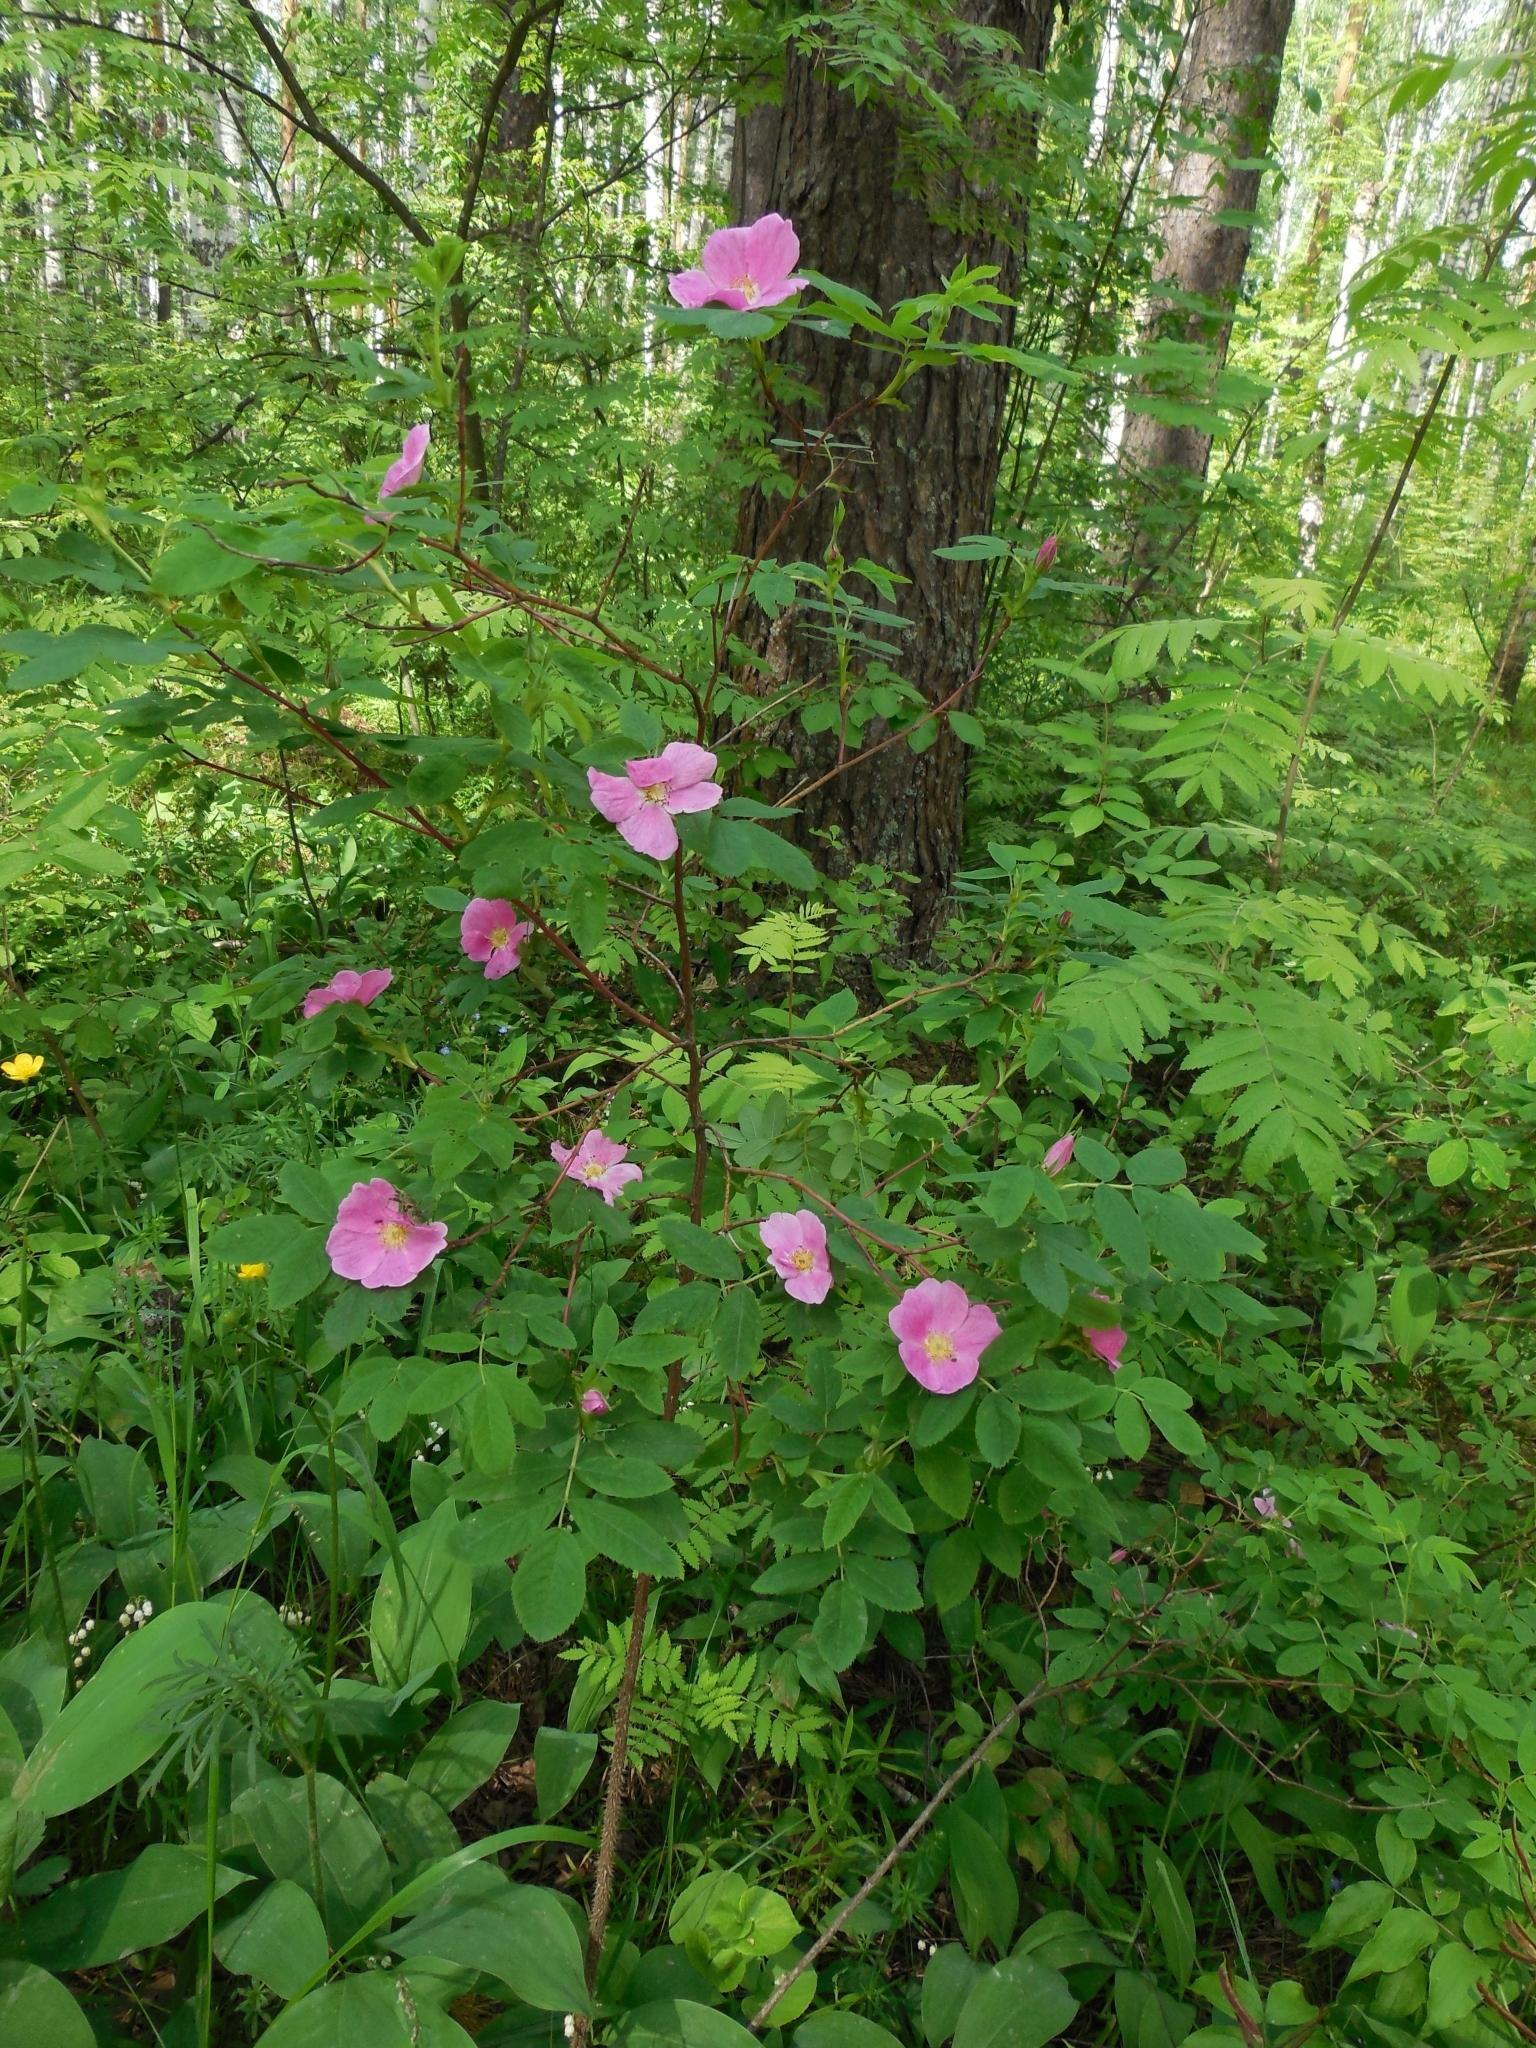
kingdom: Plantae
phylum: Tracheophyta
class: Magnoliopsida
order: Rosales
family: Rosaceae
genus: Rosa
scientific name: Rosa majalis
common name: Cinnamon rose
